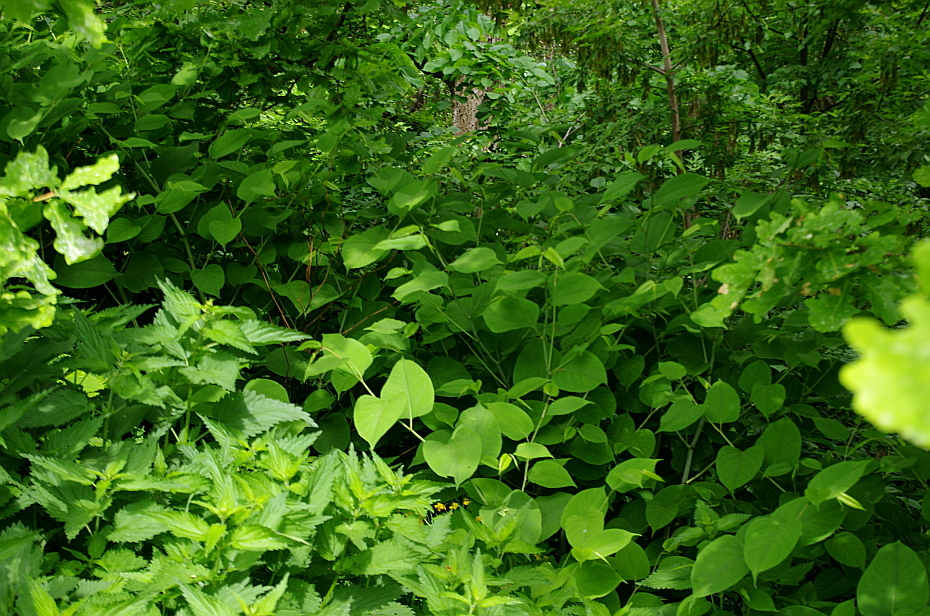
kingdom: Plantae
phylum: Tracheophyta
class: Magnoliopsida
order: Caryophyllales
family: Polygonaceae
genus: Reynoutria
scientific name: Reynoutria bohemica
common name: Bohemian knotweed
